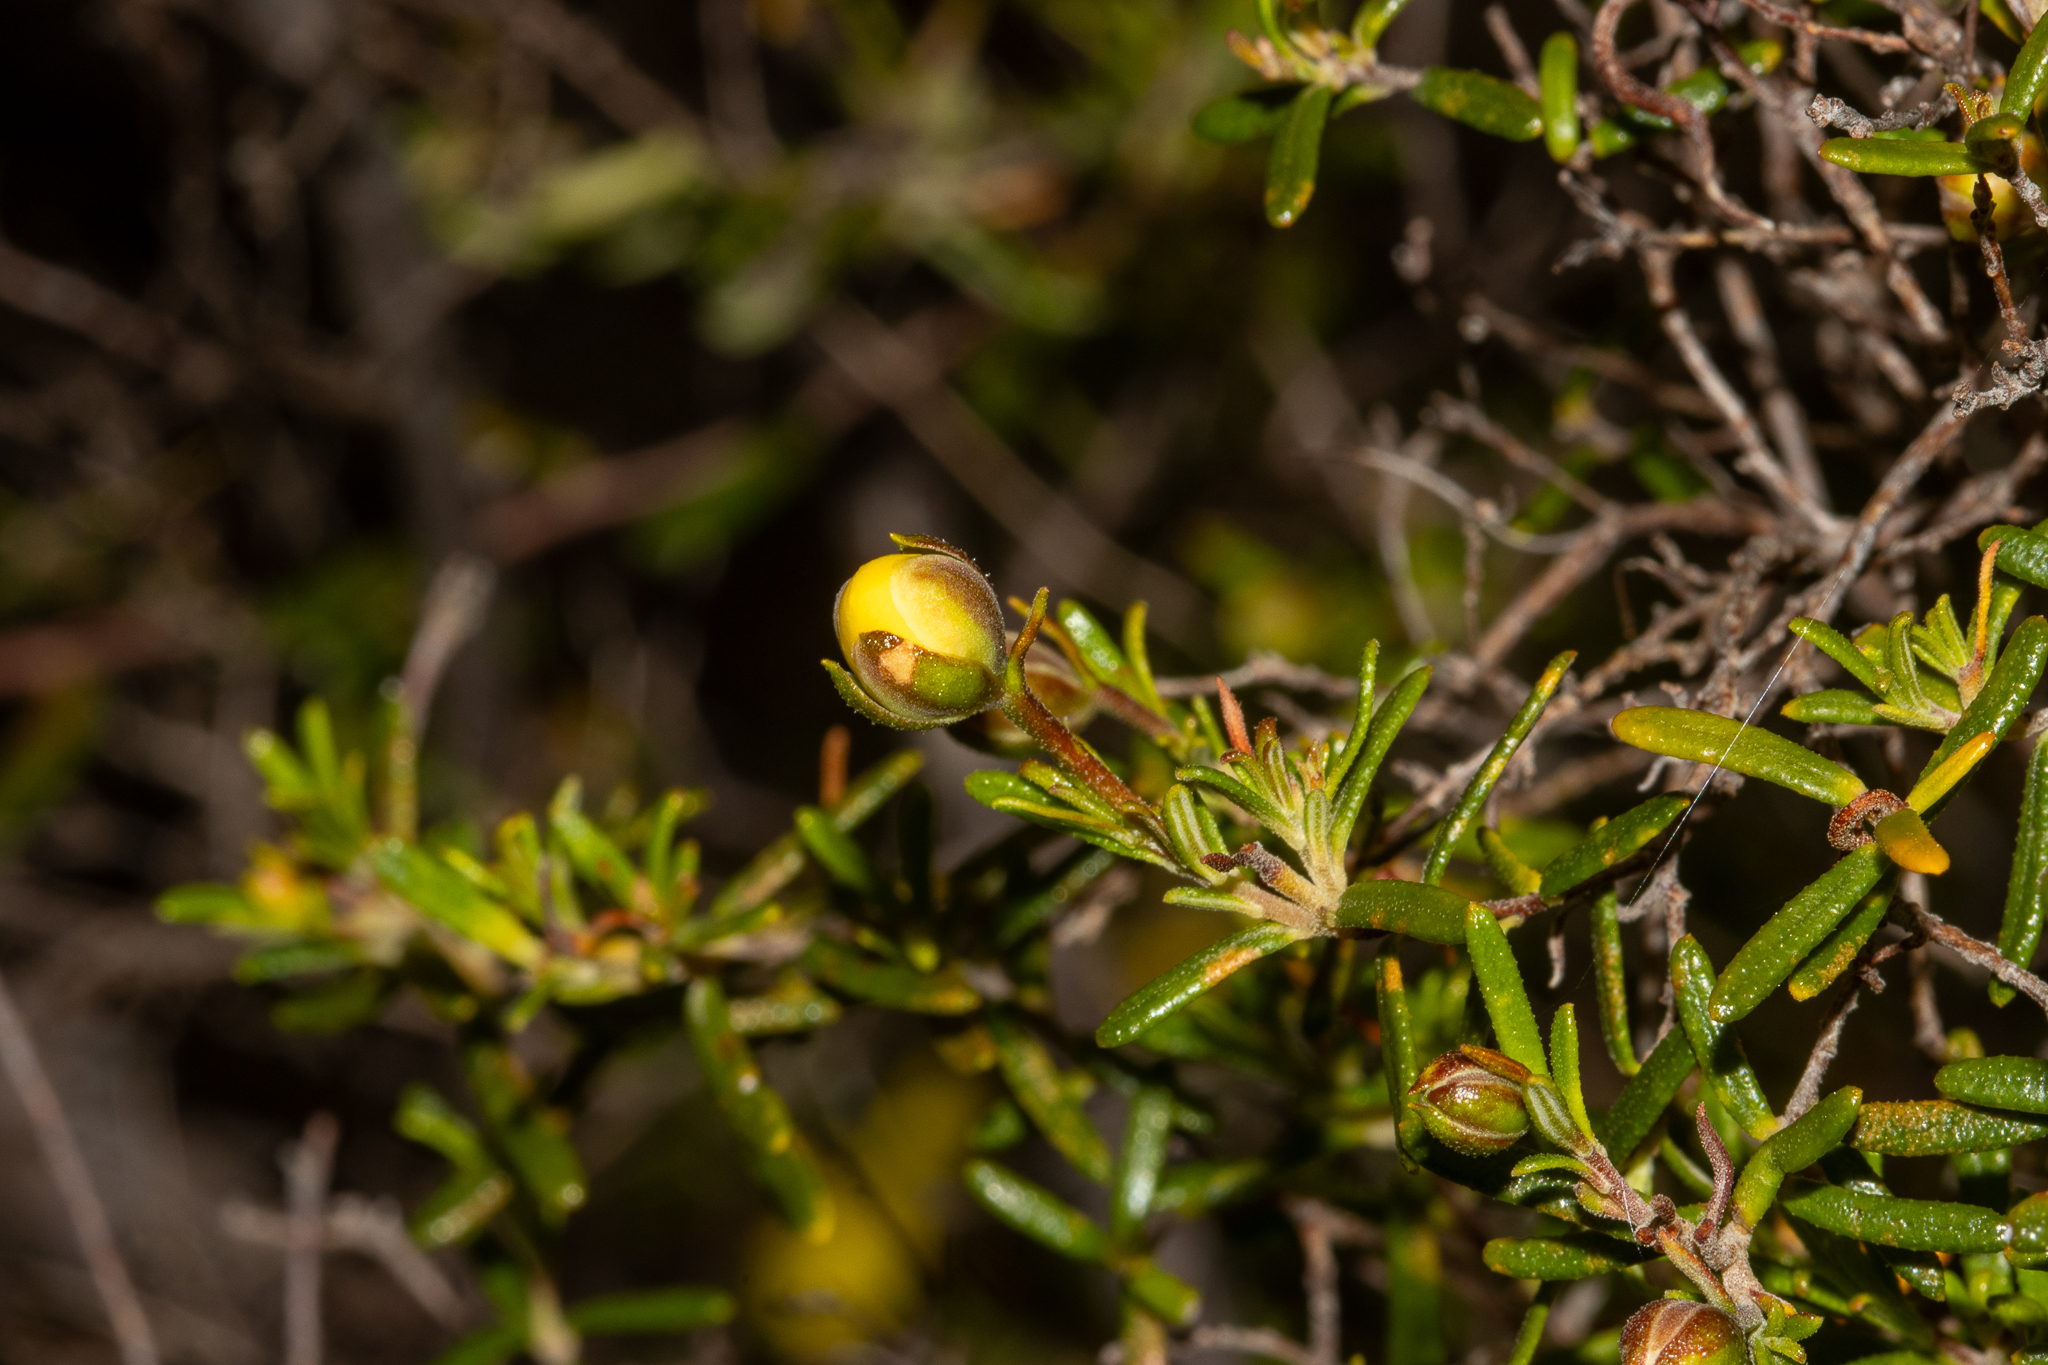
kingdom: Plantae
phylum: Tracheophyta
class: Magnoliopsida
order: Dilleniales
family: Dilleniaceae
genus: Hibbertia
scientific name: Hibbertia hypericoides
